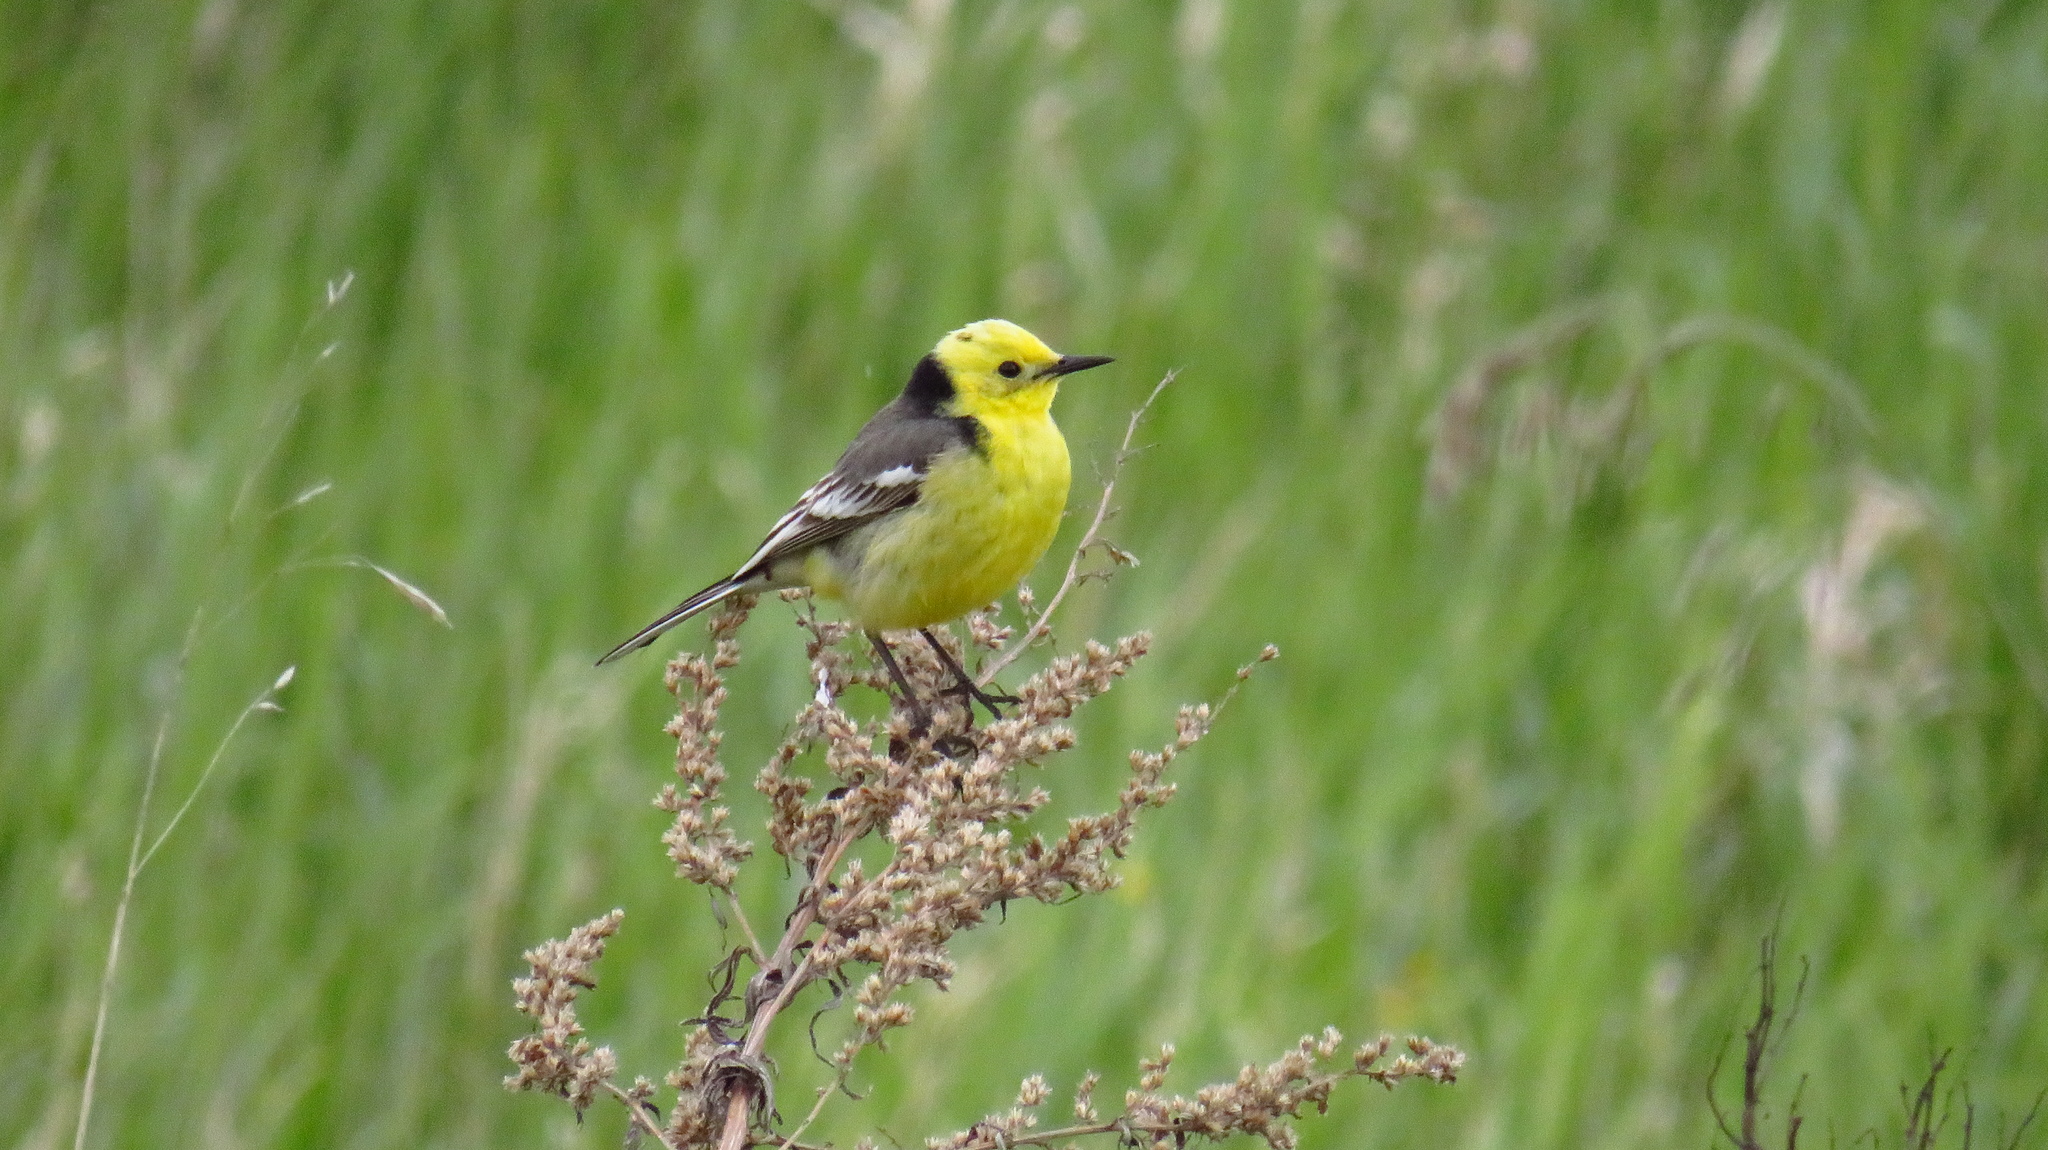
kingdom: Animalia
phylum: Chordata
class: Aves
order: Passeriformes
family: Motacillidae
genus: Motacilla
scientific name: Motacilla citreola
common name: Citrine wagtail
